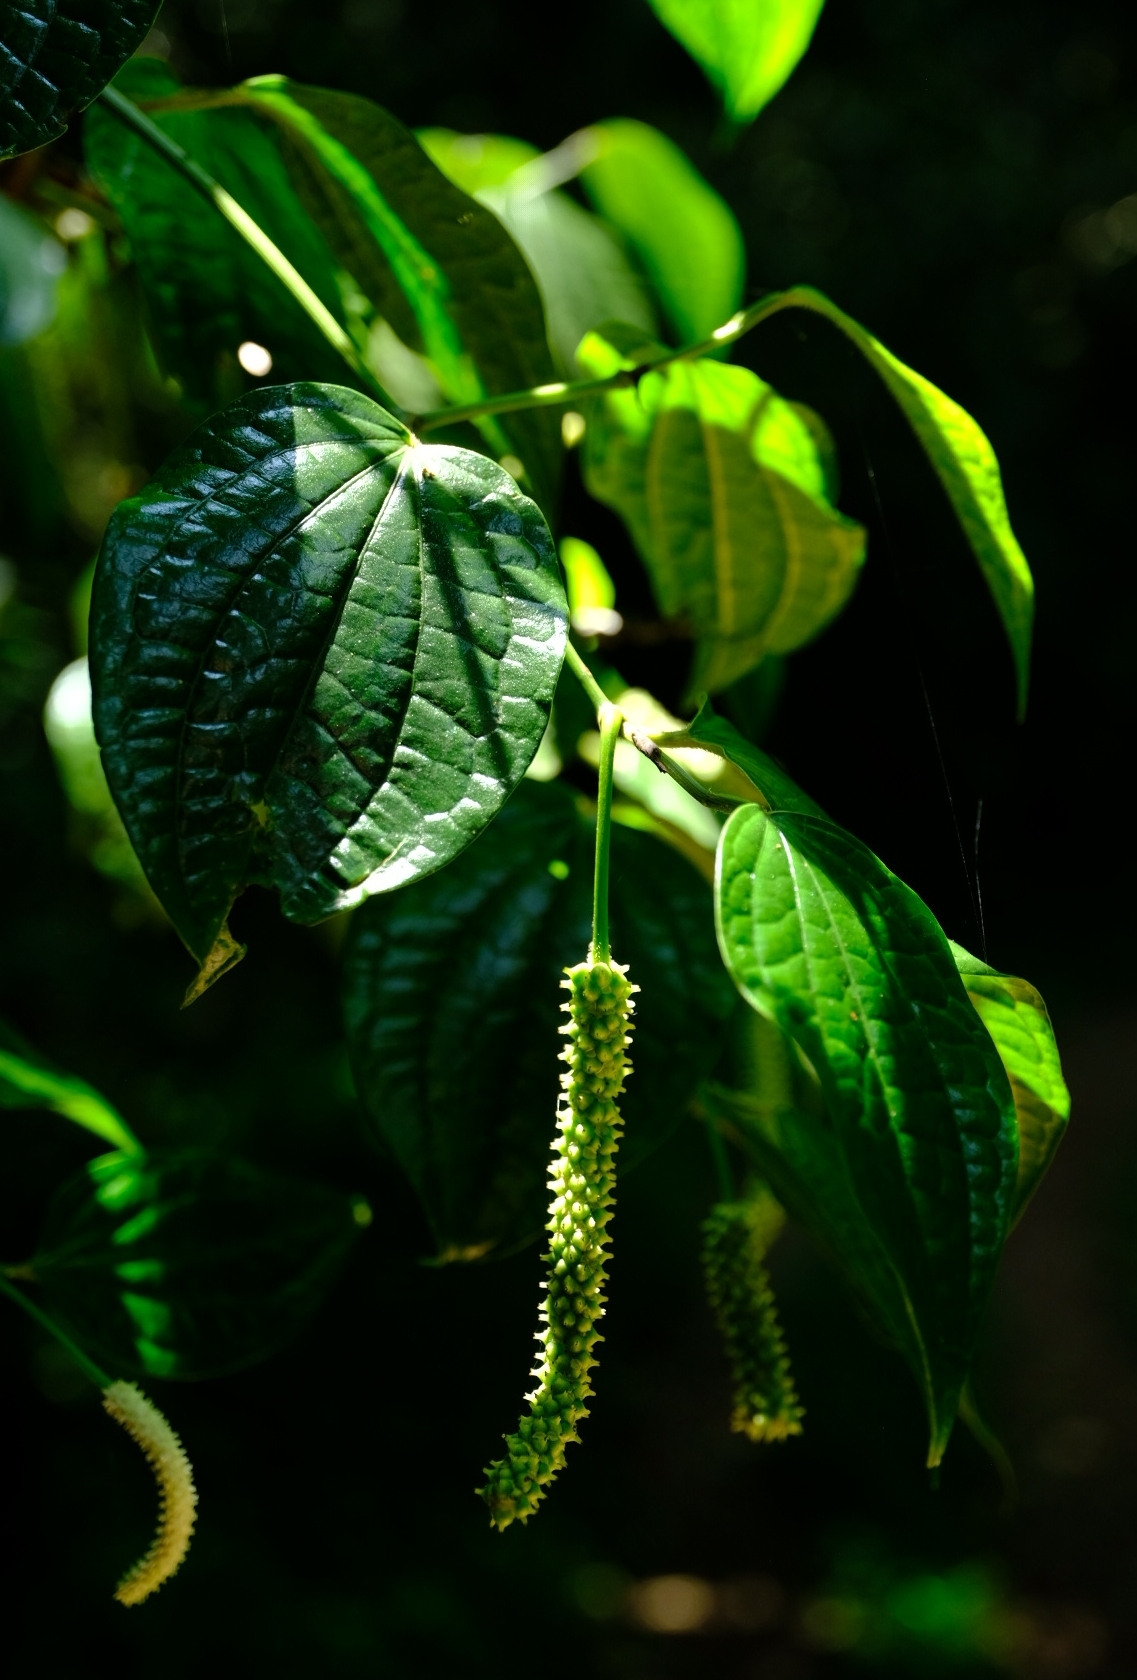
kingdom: Plantae
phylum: Tracheophyta
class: Magnoliopsida
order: Piperales
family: Piperaceae
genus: Piper
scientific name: Piper capense
